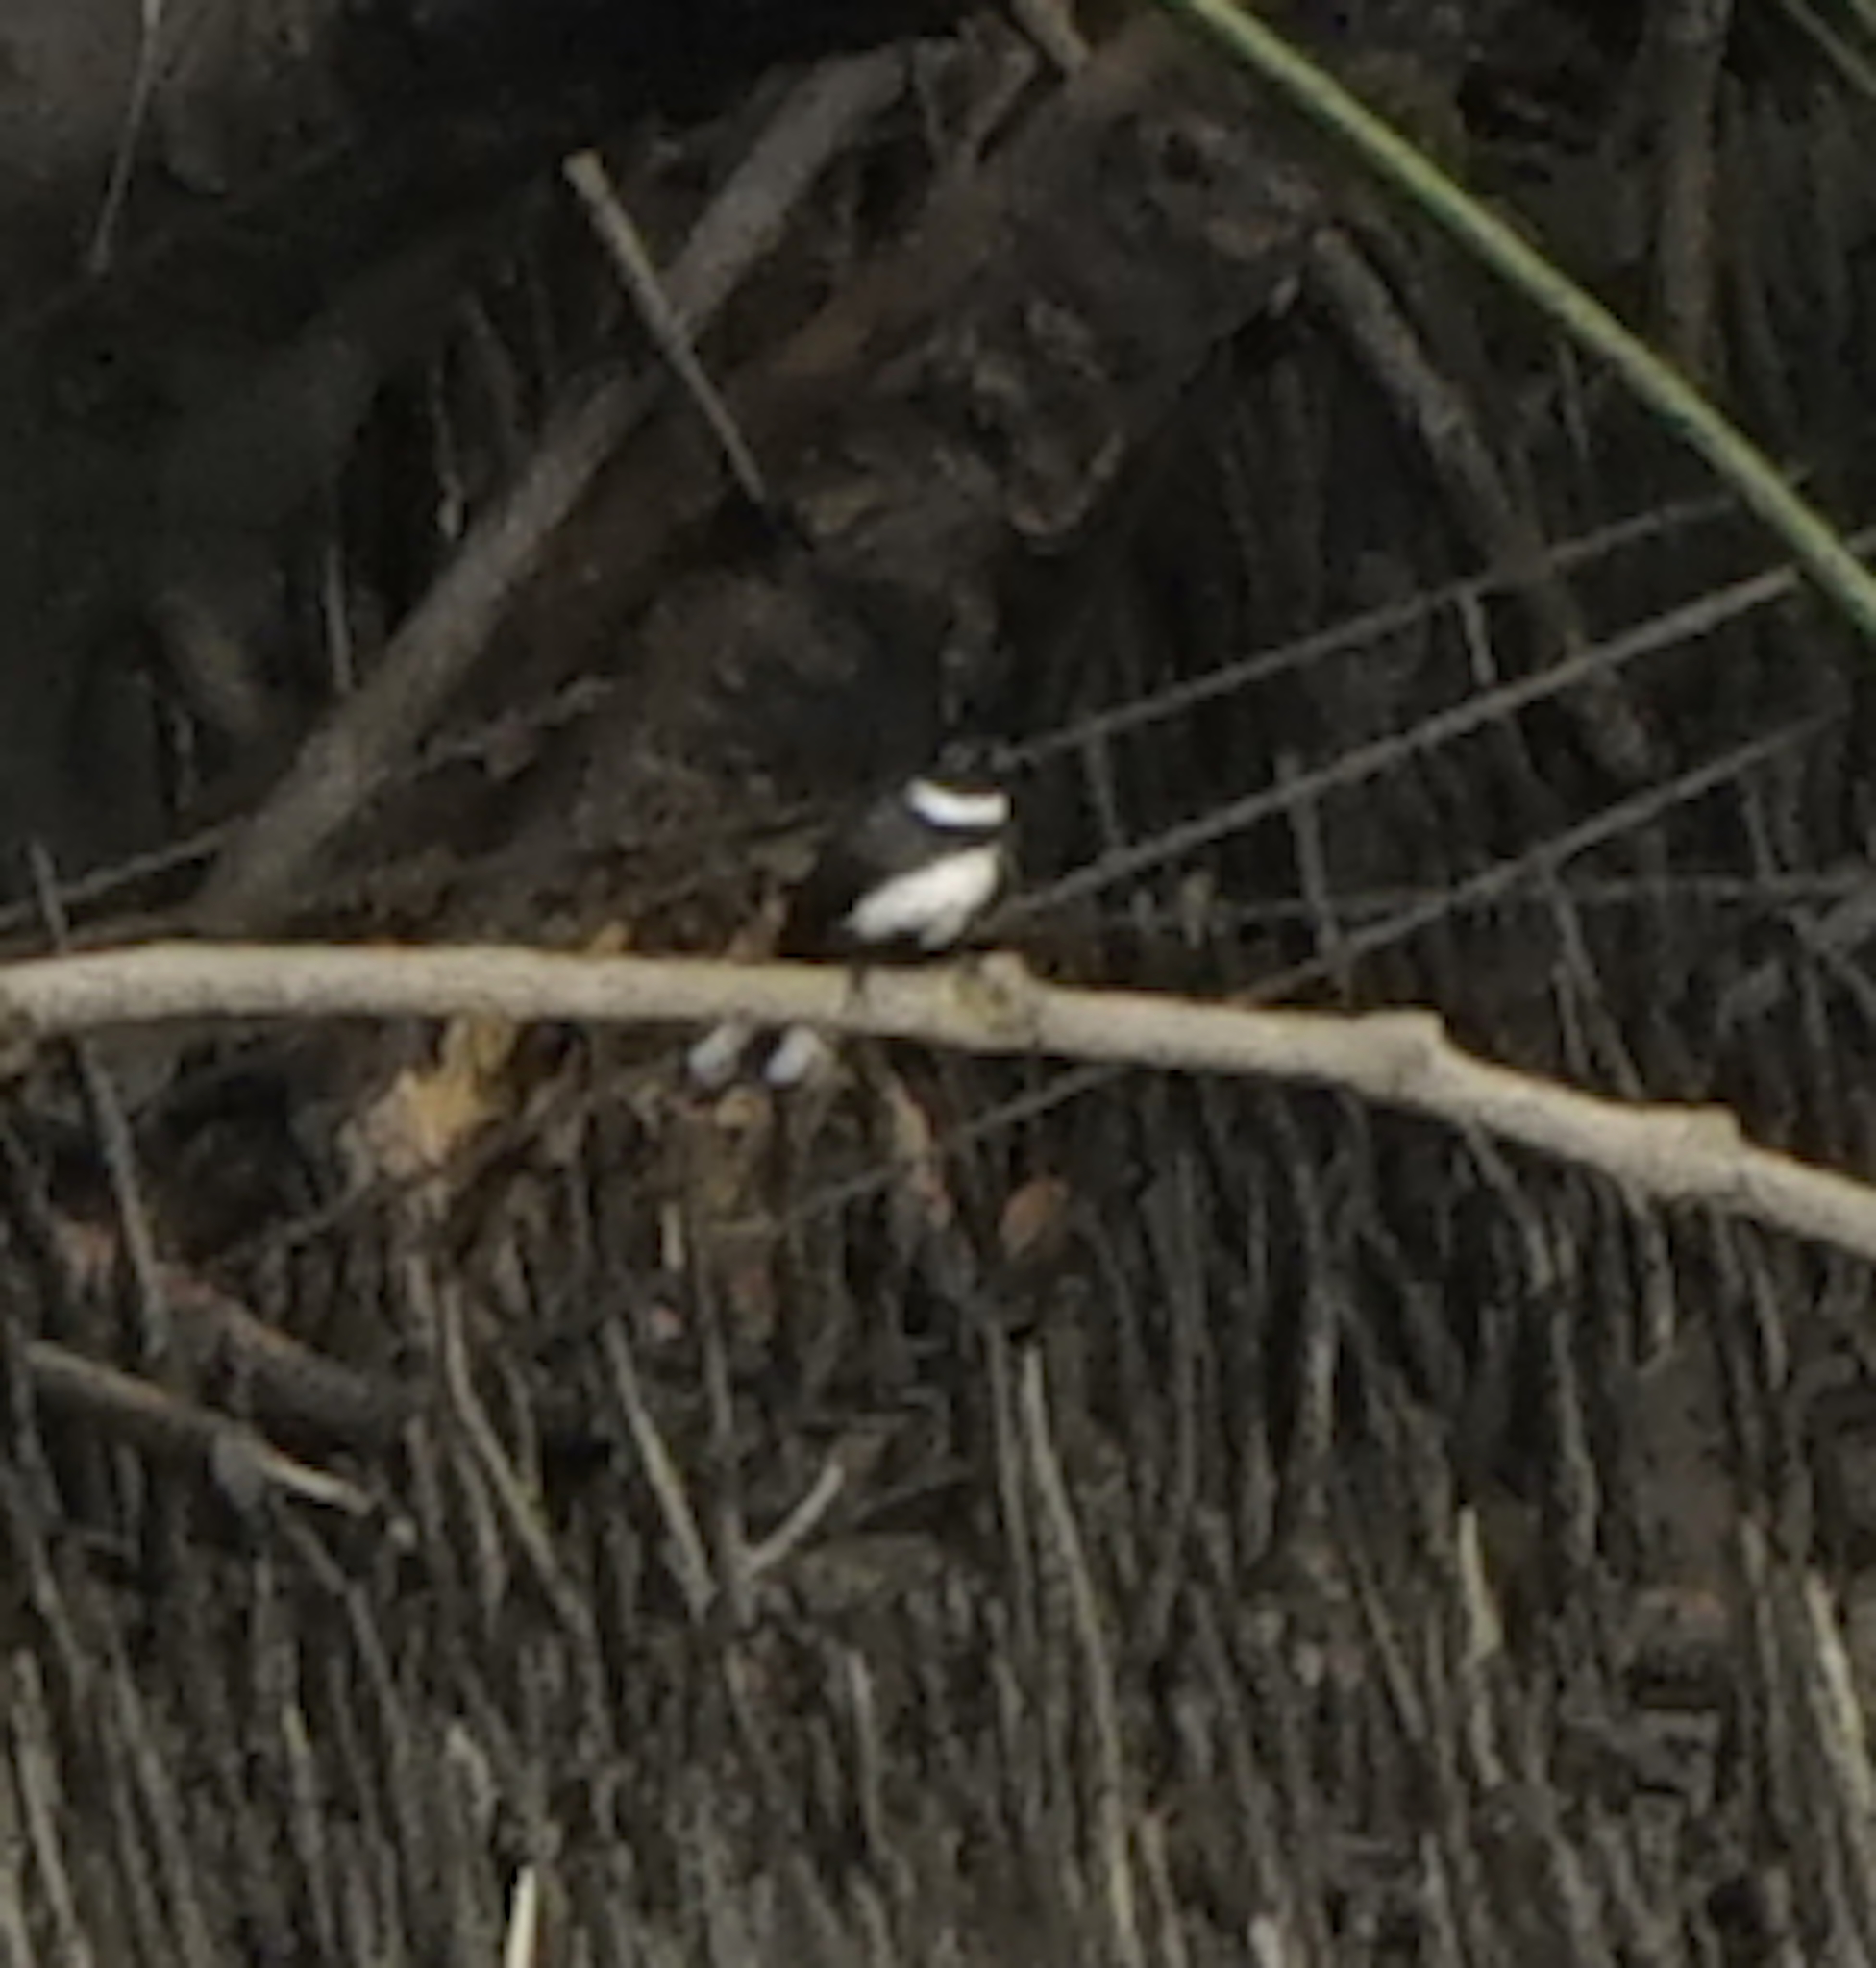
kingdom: Animalia
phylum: Chordata
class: Aves
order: Passeriformes
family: Rhipiduridae
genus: Rhipidura
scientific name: Rhipidura javanica
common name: Pied fantail
